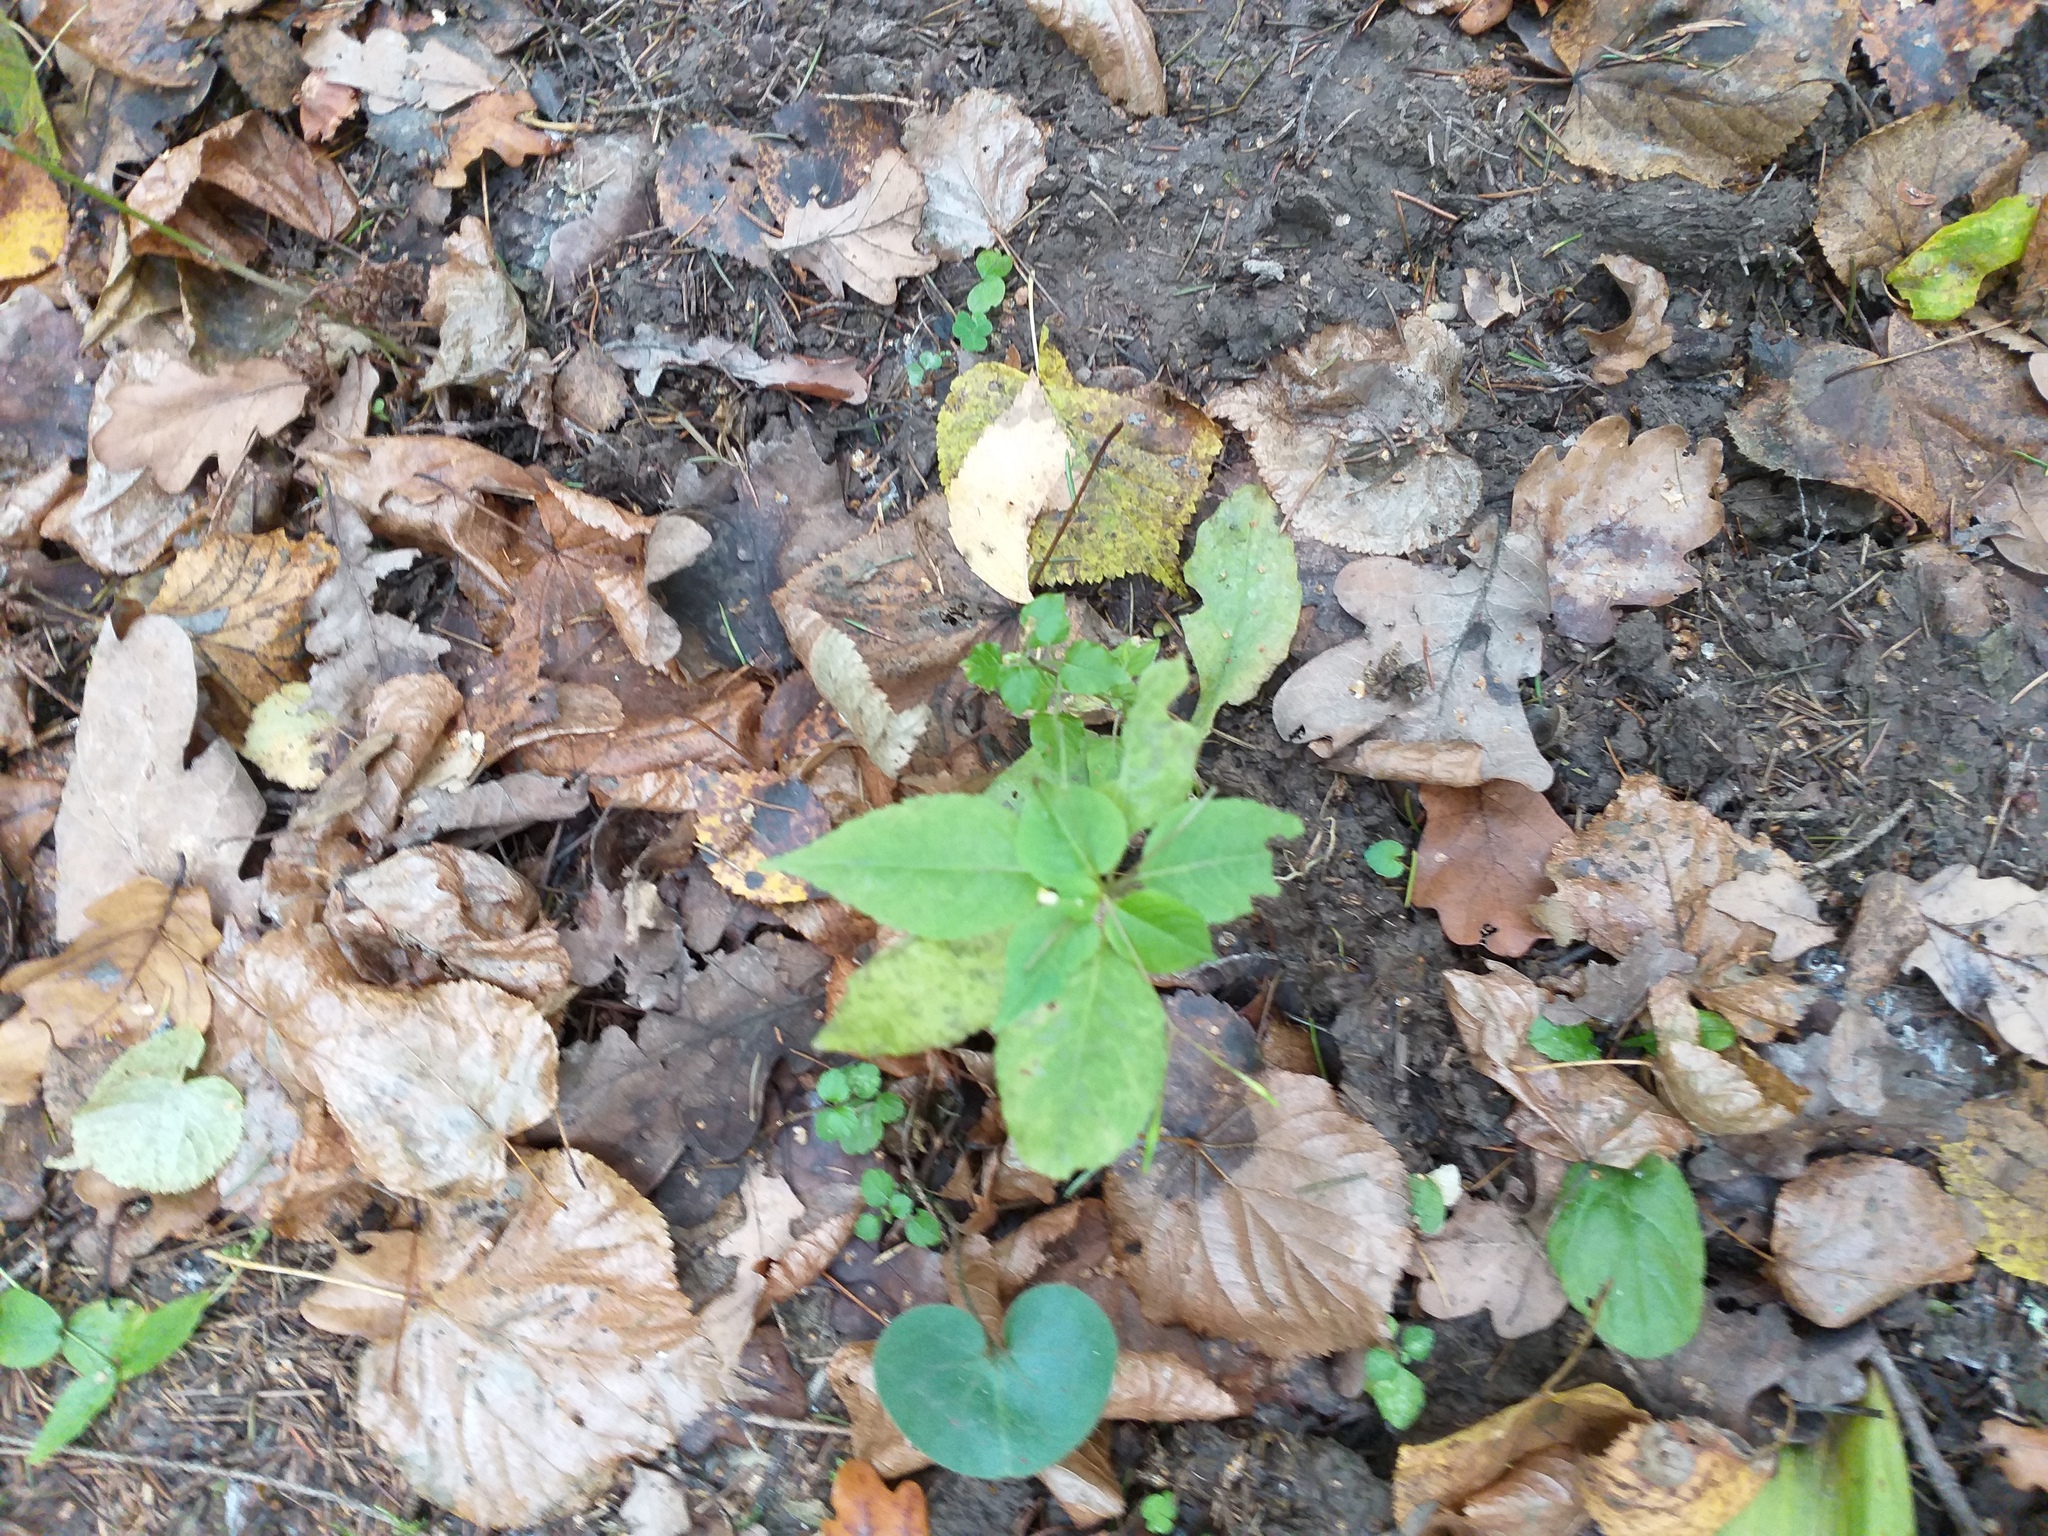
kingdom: Plantae
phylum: Tracheophyta
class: Magnoliopsida
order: Ericales
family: Balsaminaceae
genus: Impatiens
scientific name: Impatiens parviflora
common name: Small balsam
